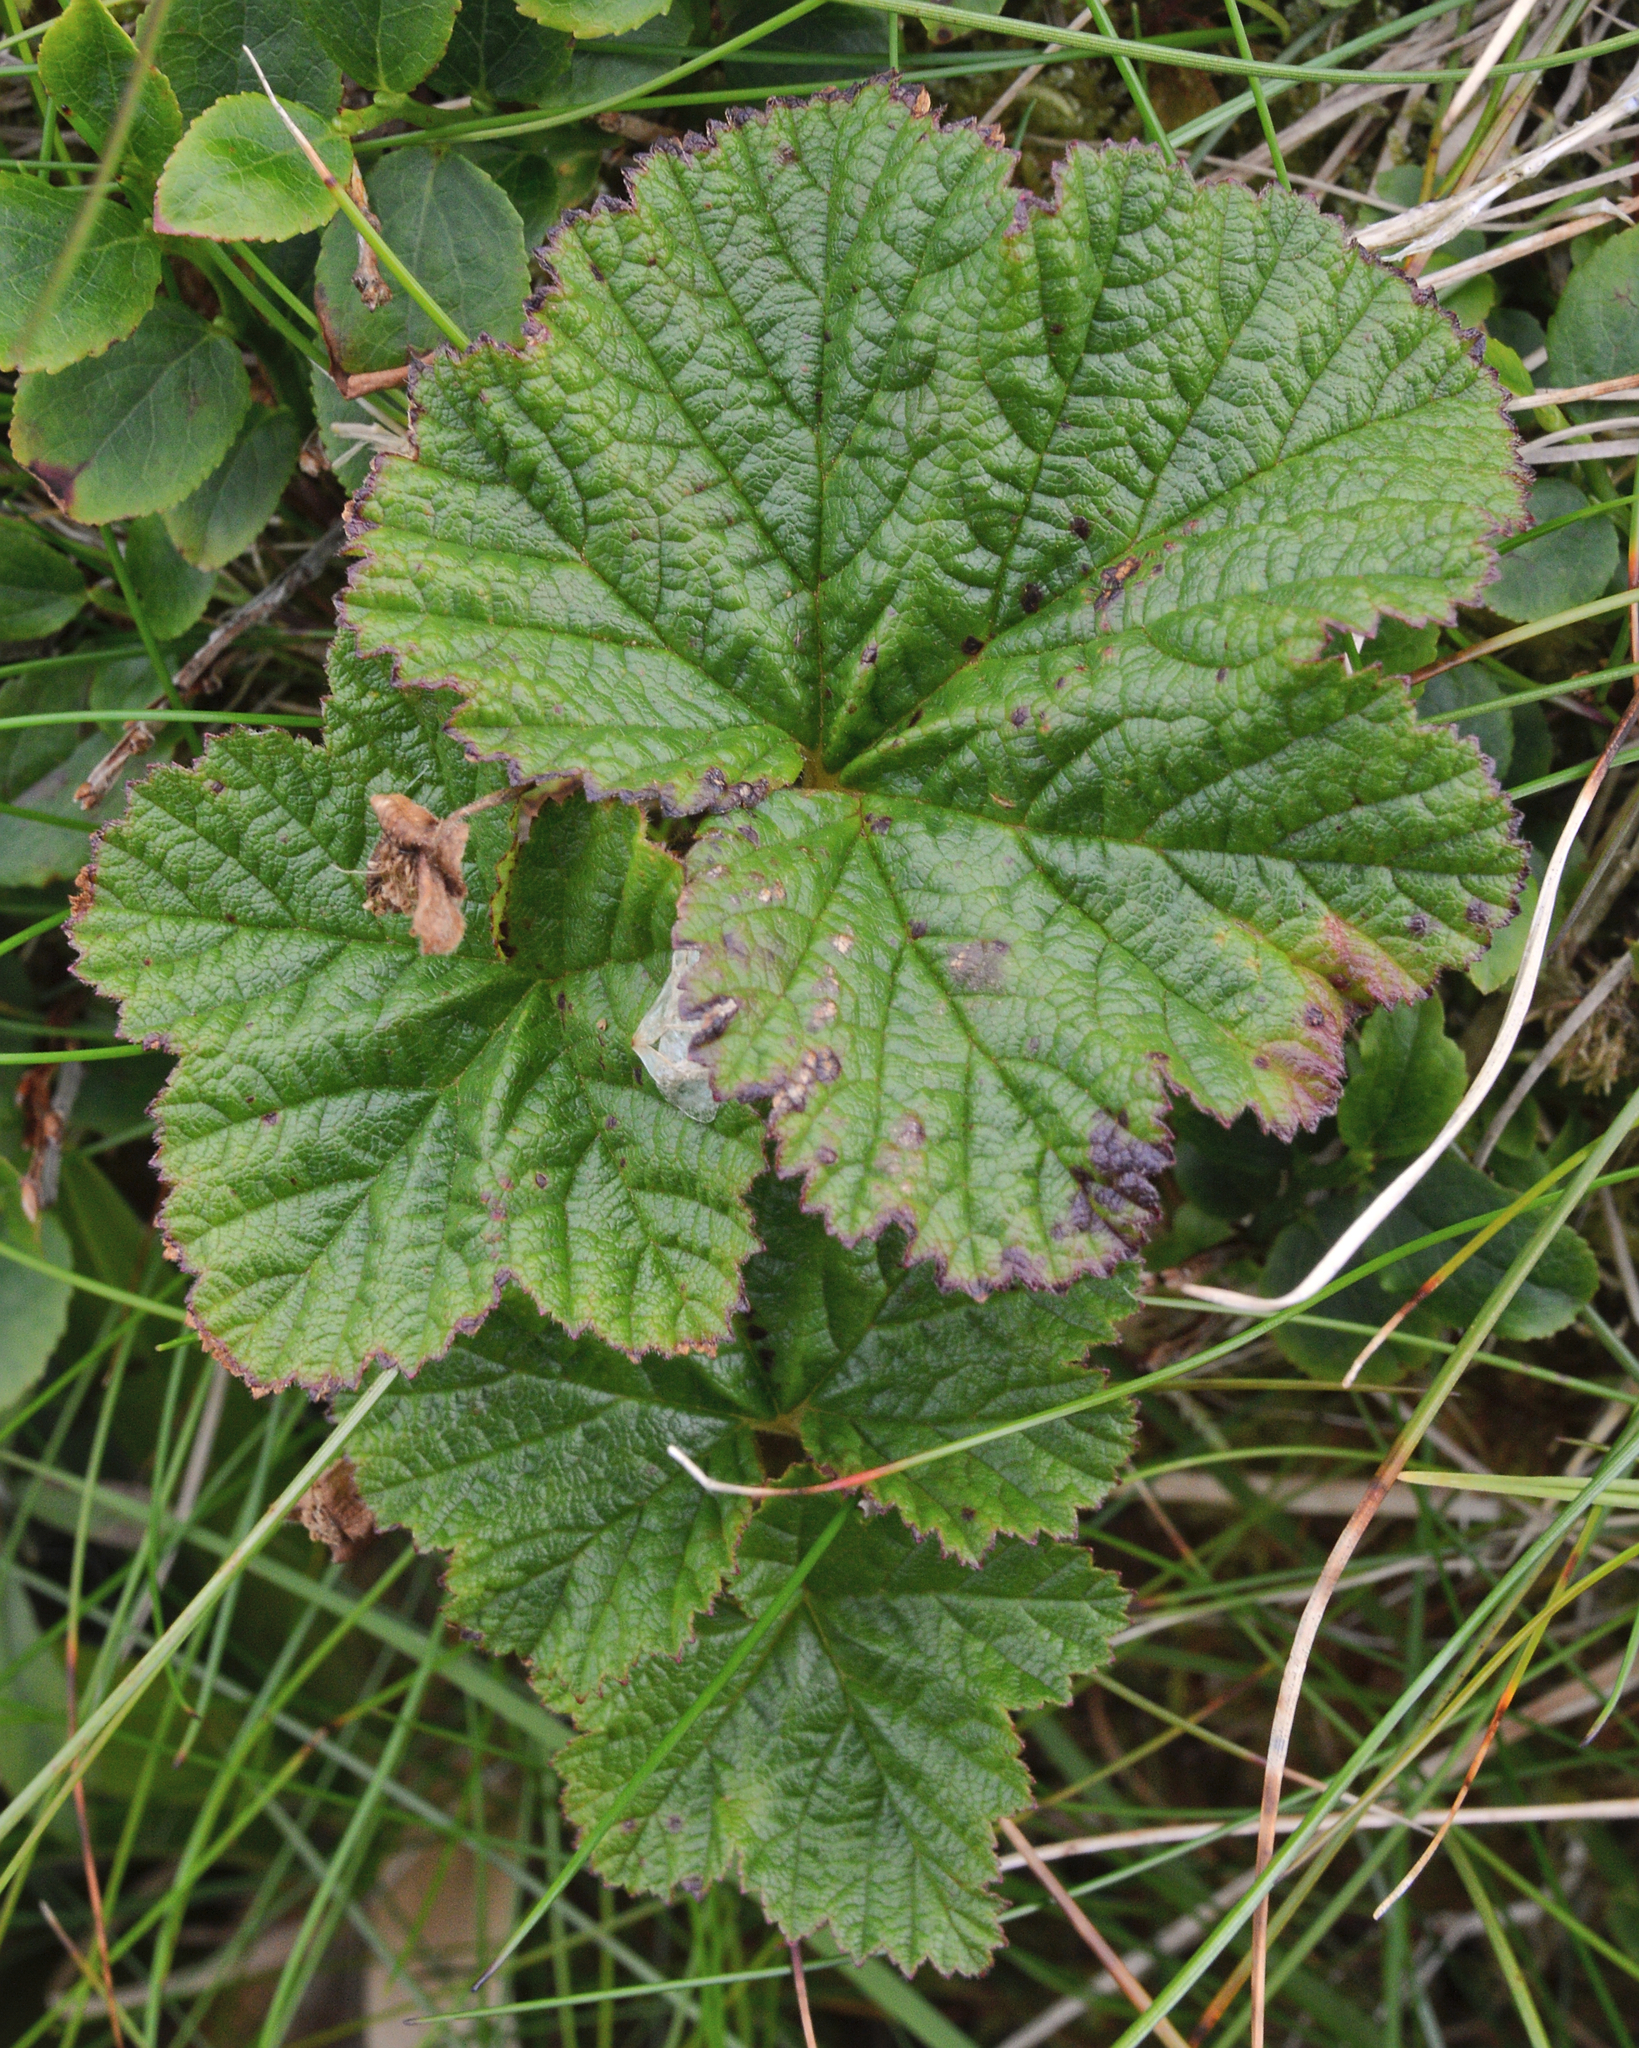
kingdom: Plantae
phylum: Tracheophyta
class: Magnoliopsida
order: Rosales
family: Rosaceae
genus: Rubus
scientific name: Rubus chamaemorus
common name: Cloudberry
